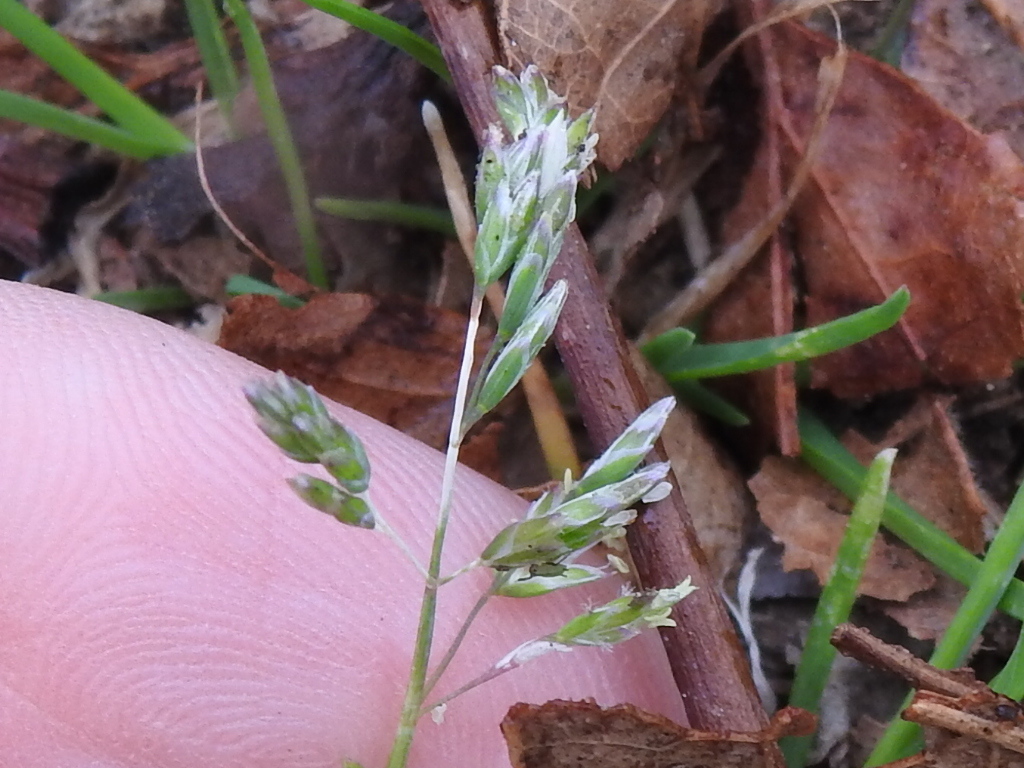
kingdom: Plantae
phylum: Tracheophyta
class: Liliopsida
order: Poales
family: Poaceae
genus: Poa
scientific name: Poa annua
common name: Annual bluegrass
